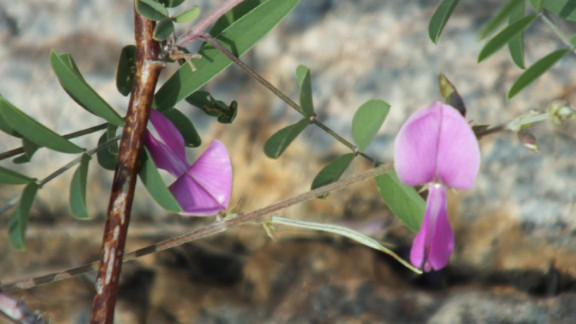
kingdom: Plantae
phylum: Tracheophyta
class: Magnoliopsida
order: Fabales
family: Fabaceae
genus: Tephrosia
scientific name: Tephrosia longipes
